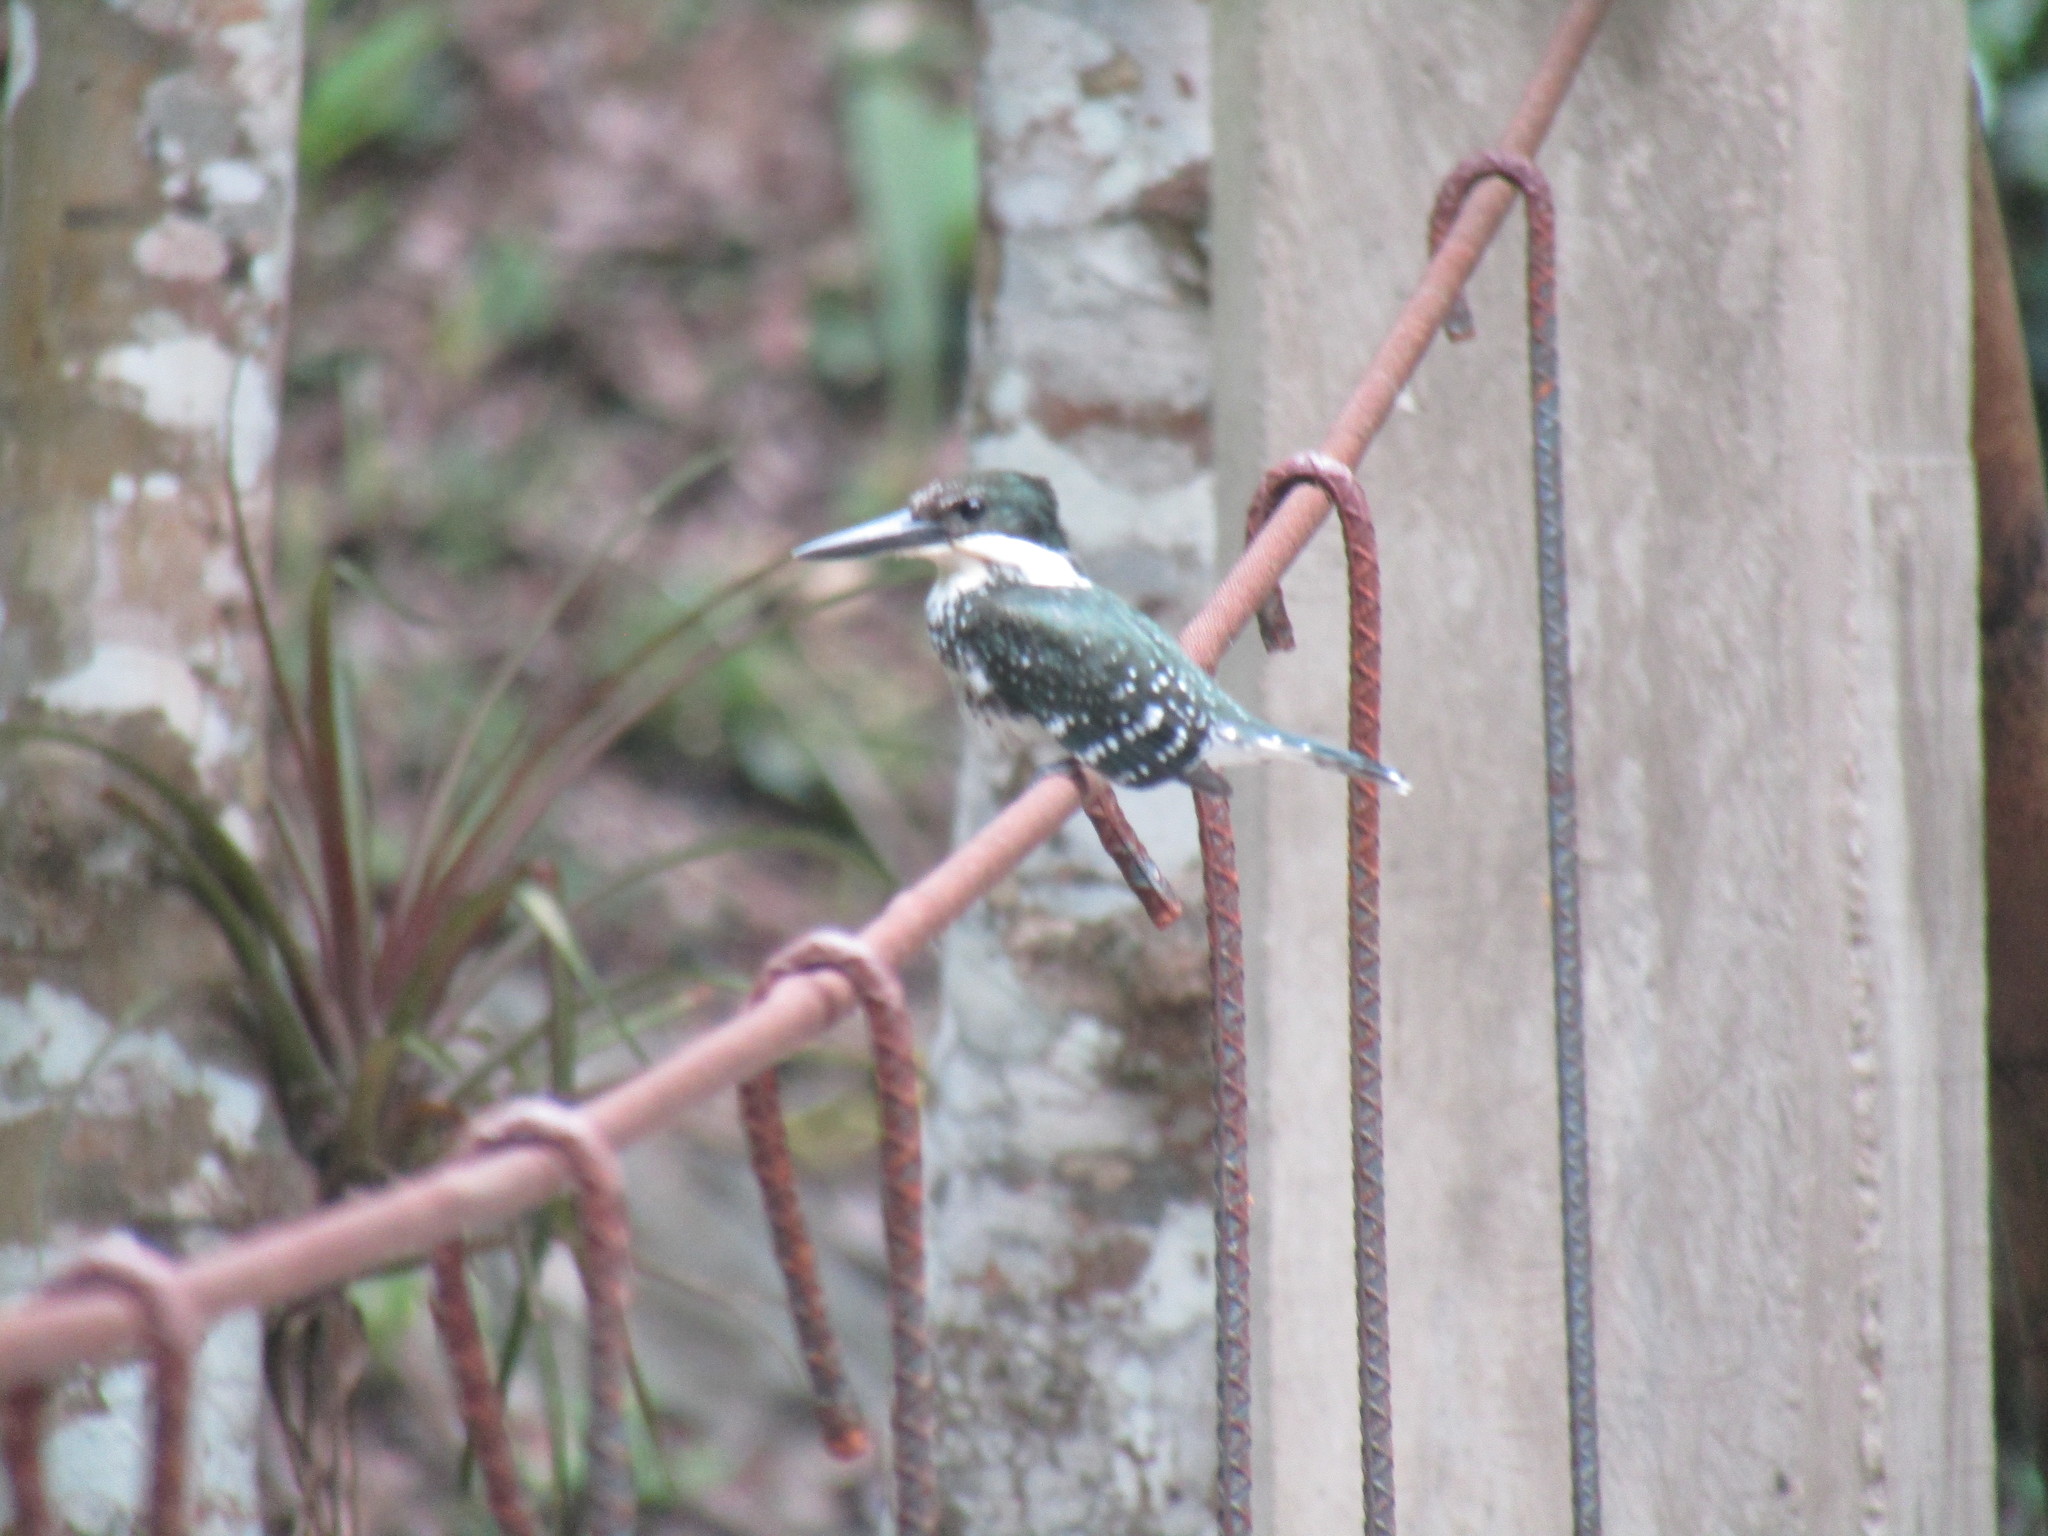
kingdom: Animalia
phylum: Chordata
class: Aves
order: Coraciiformes
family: Alcedinidae
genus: Chloroceryle
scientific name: Chloroceryle americana
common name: Green kingfisher
